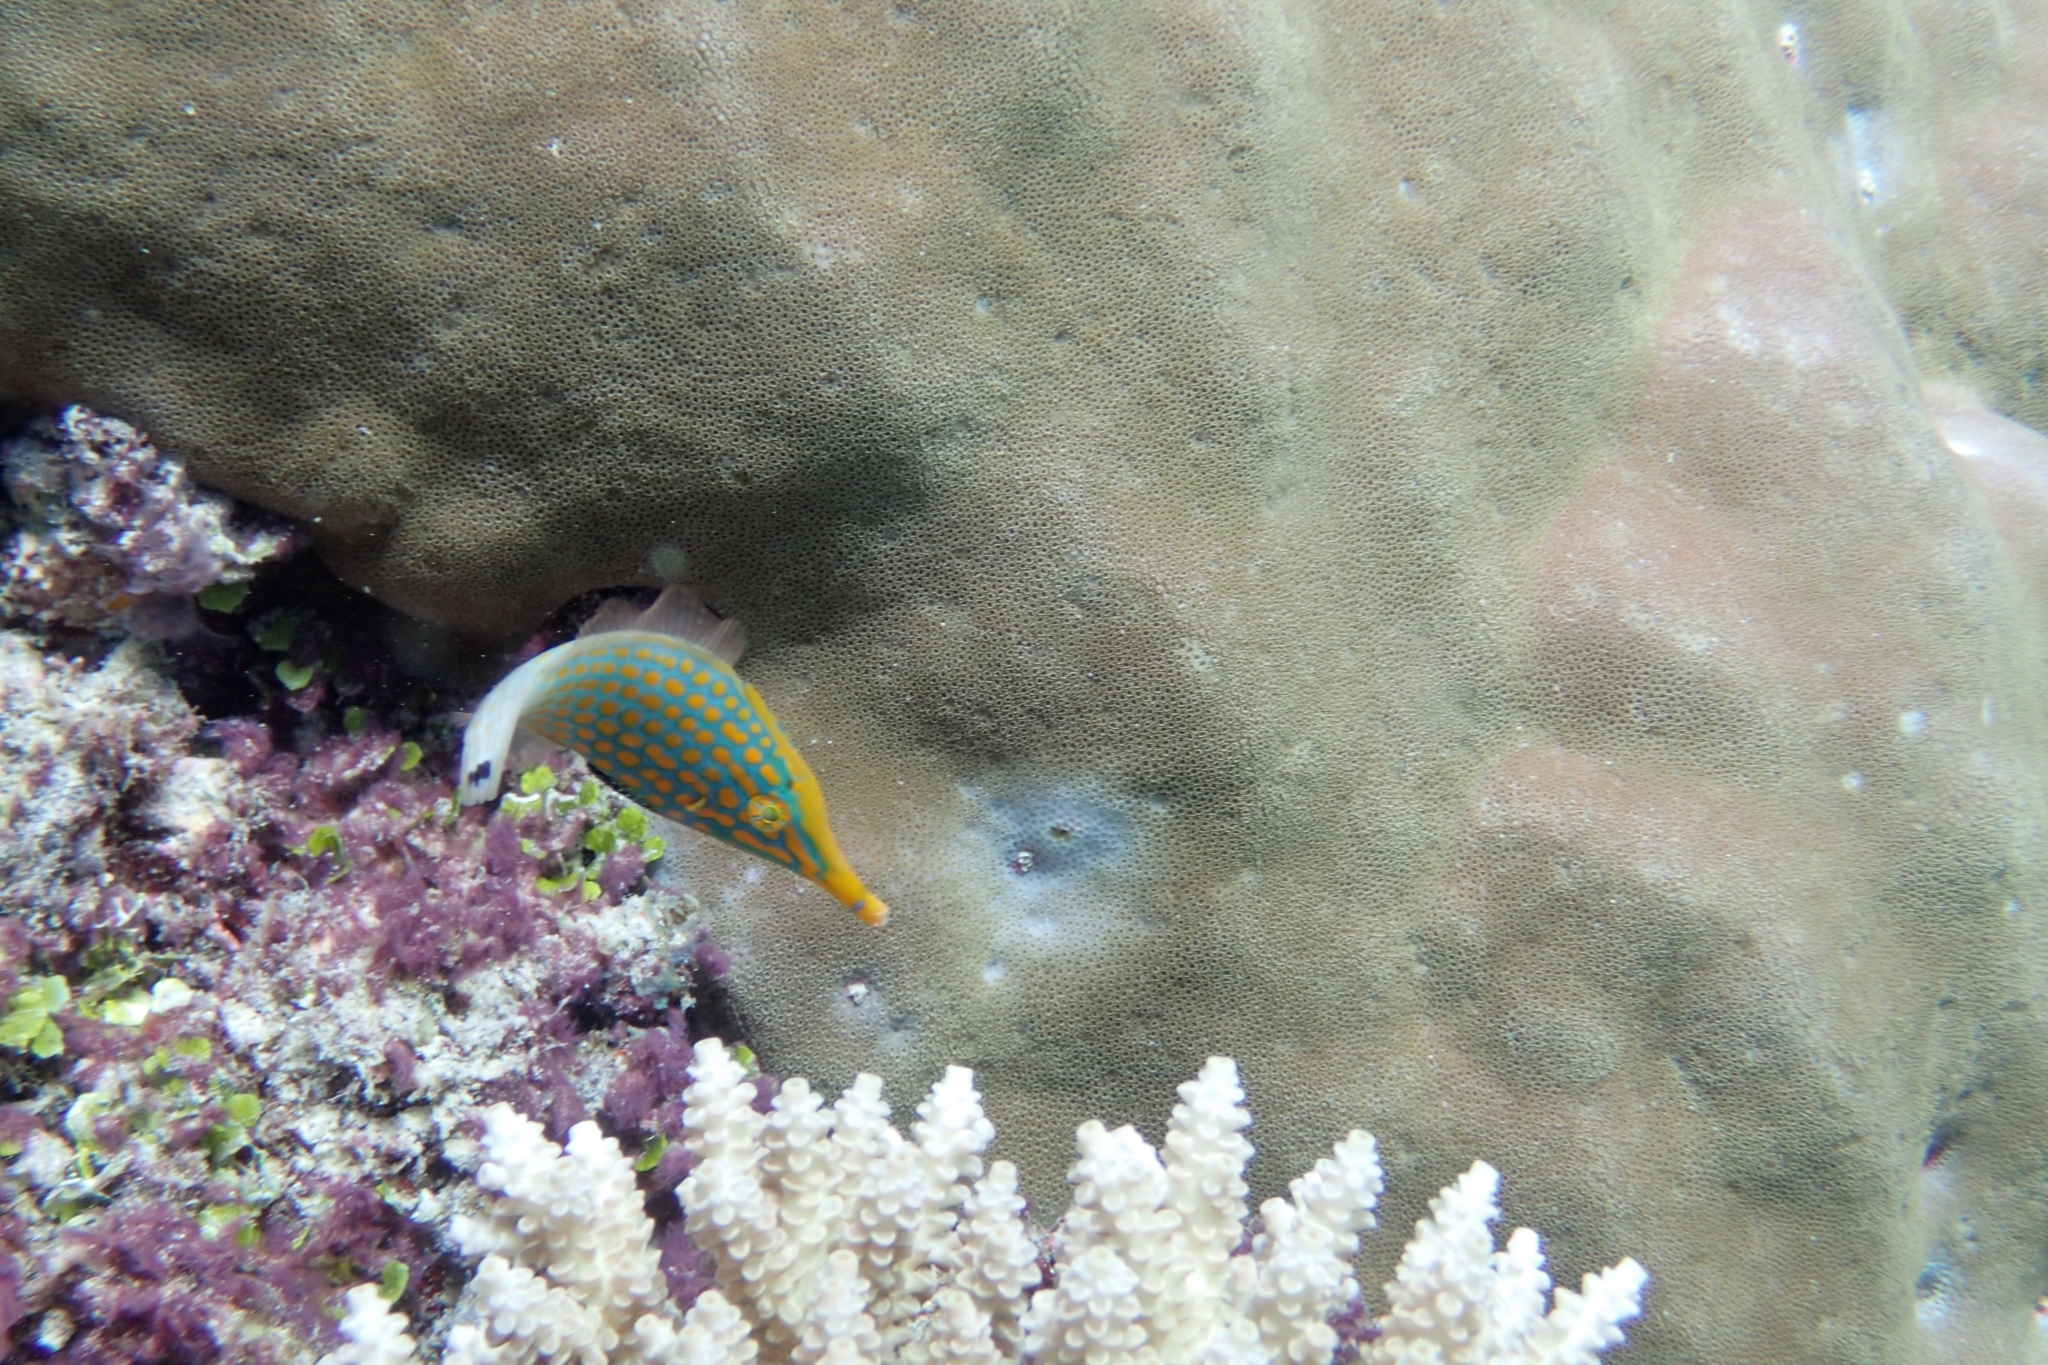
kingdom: Animalia
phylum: Chordata
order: Tetraodontiformes
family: Monacanthidae
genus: Oxymonacanthus
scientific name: Oxymonacanthus longirostris
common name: Beaked leatherjacket
